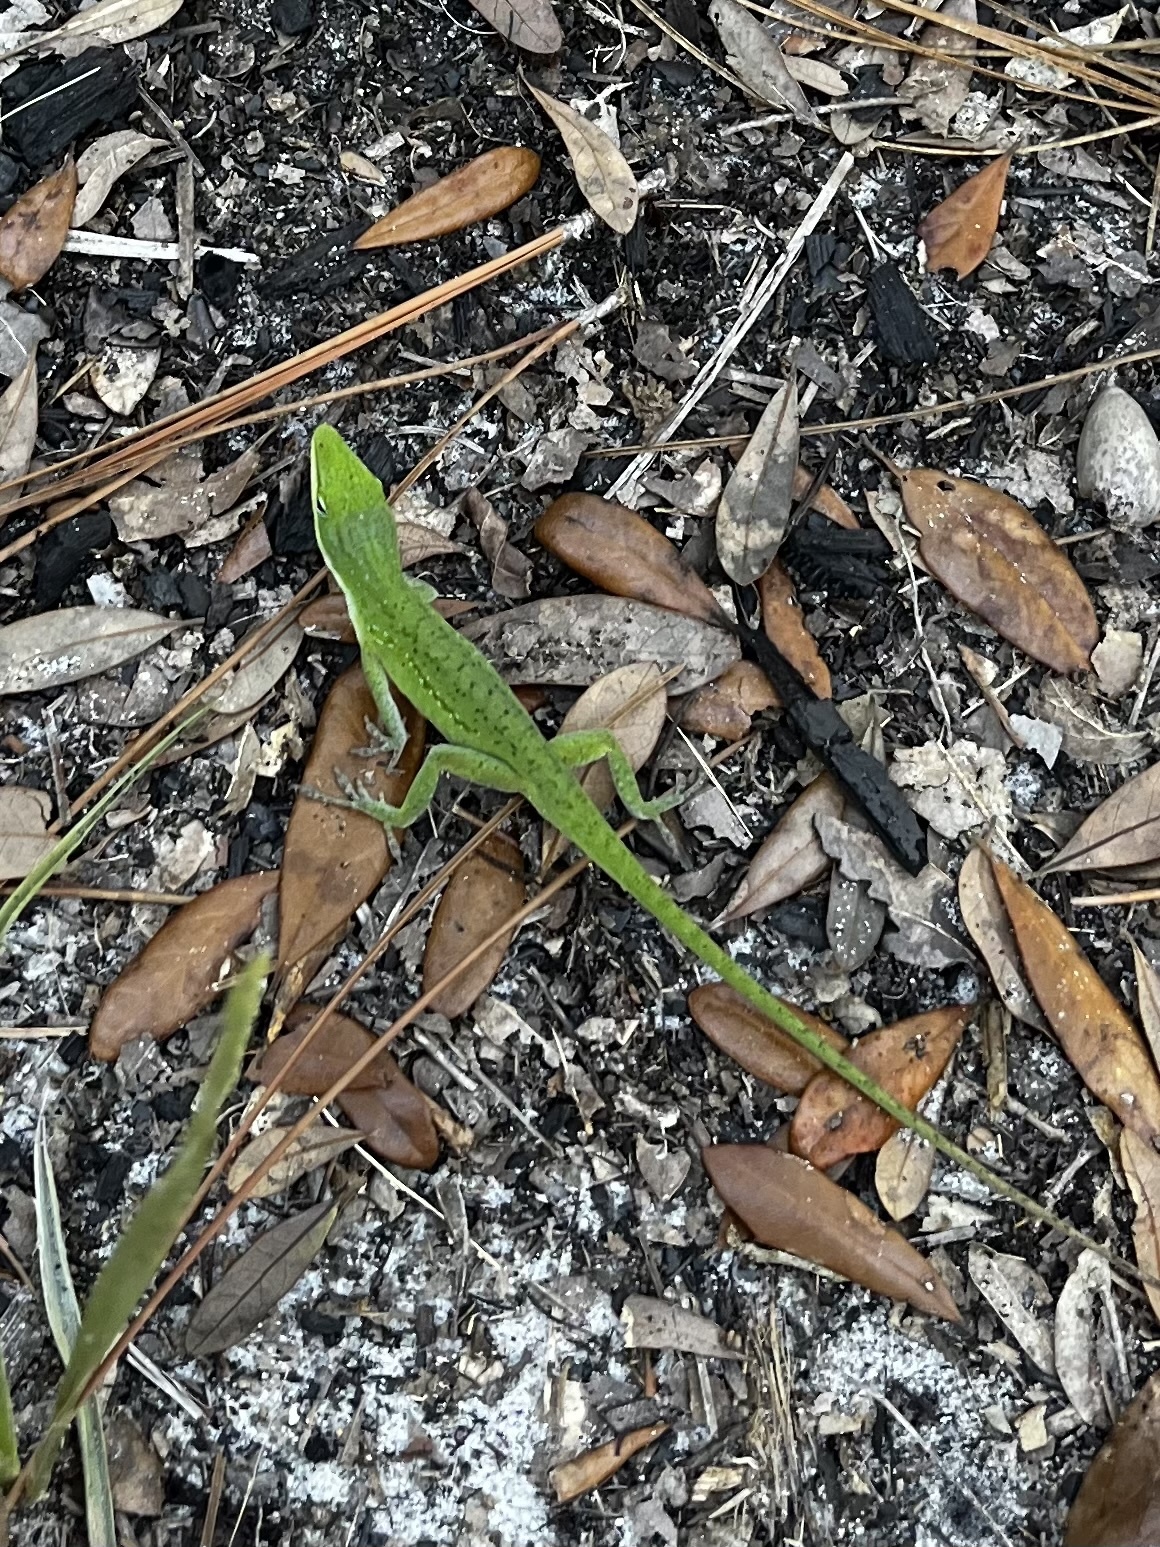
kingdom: Animalia
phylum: Chordata
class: Squamata
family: Dactyloidae
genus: Anolis
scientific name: Anolis carolinensis
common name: Green anole
